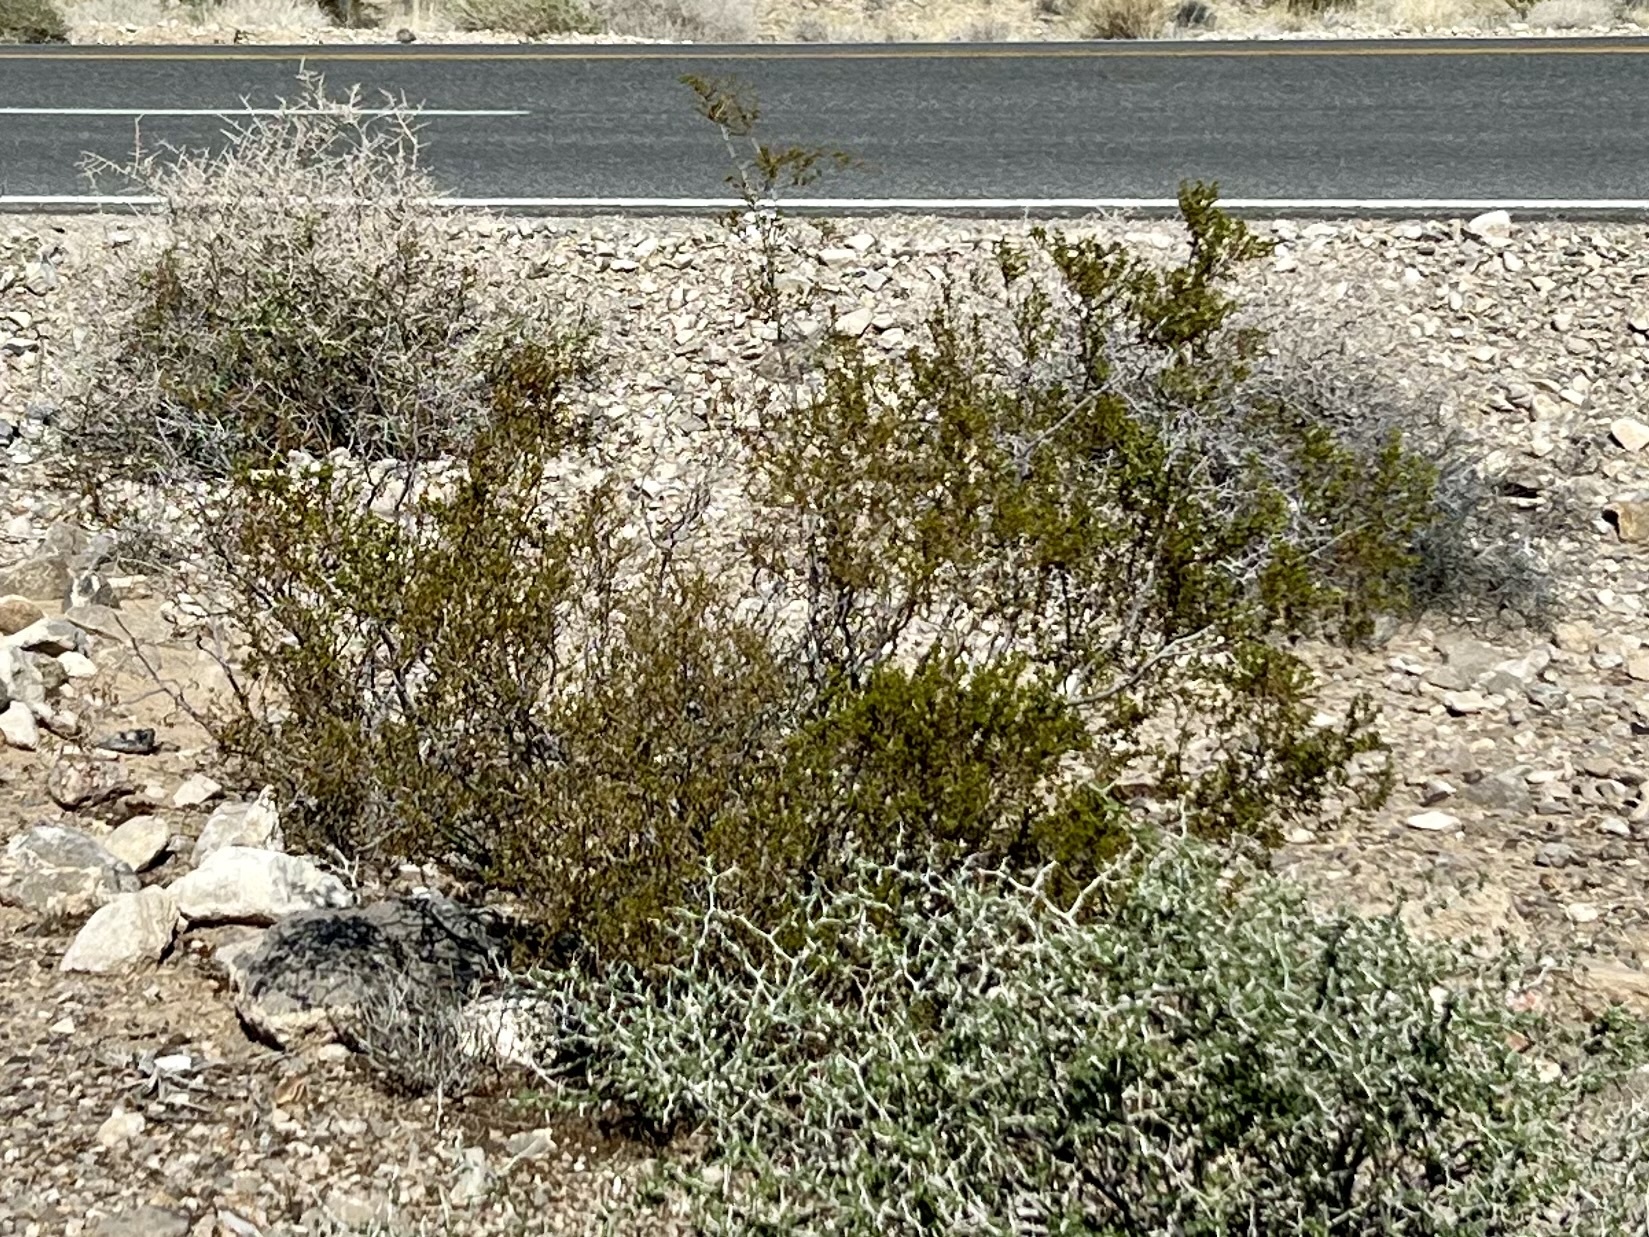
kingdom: Plantae
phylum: Tracheophyta
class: Magnoliopsida
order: Zygophyllales
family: Zygophyllaceae
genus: Larrea
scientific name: Larrea tridentata
